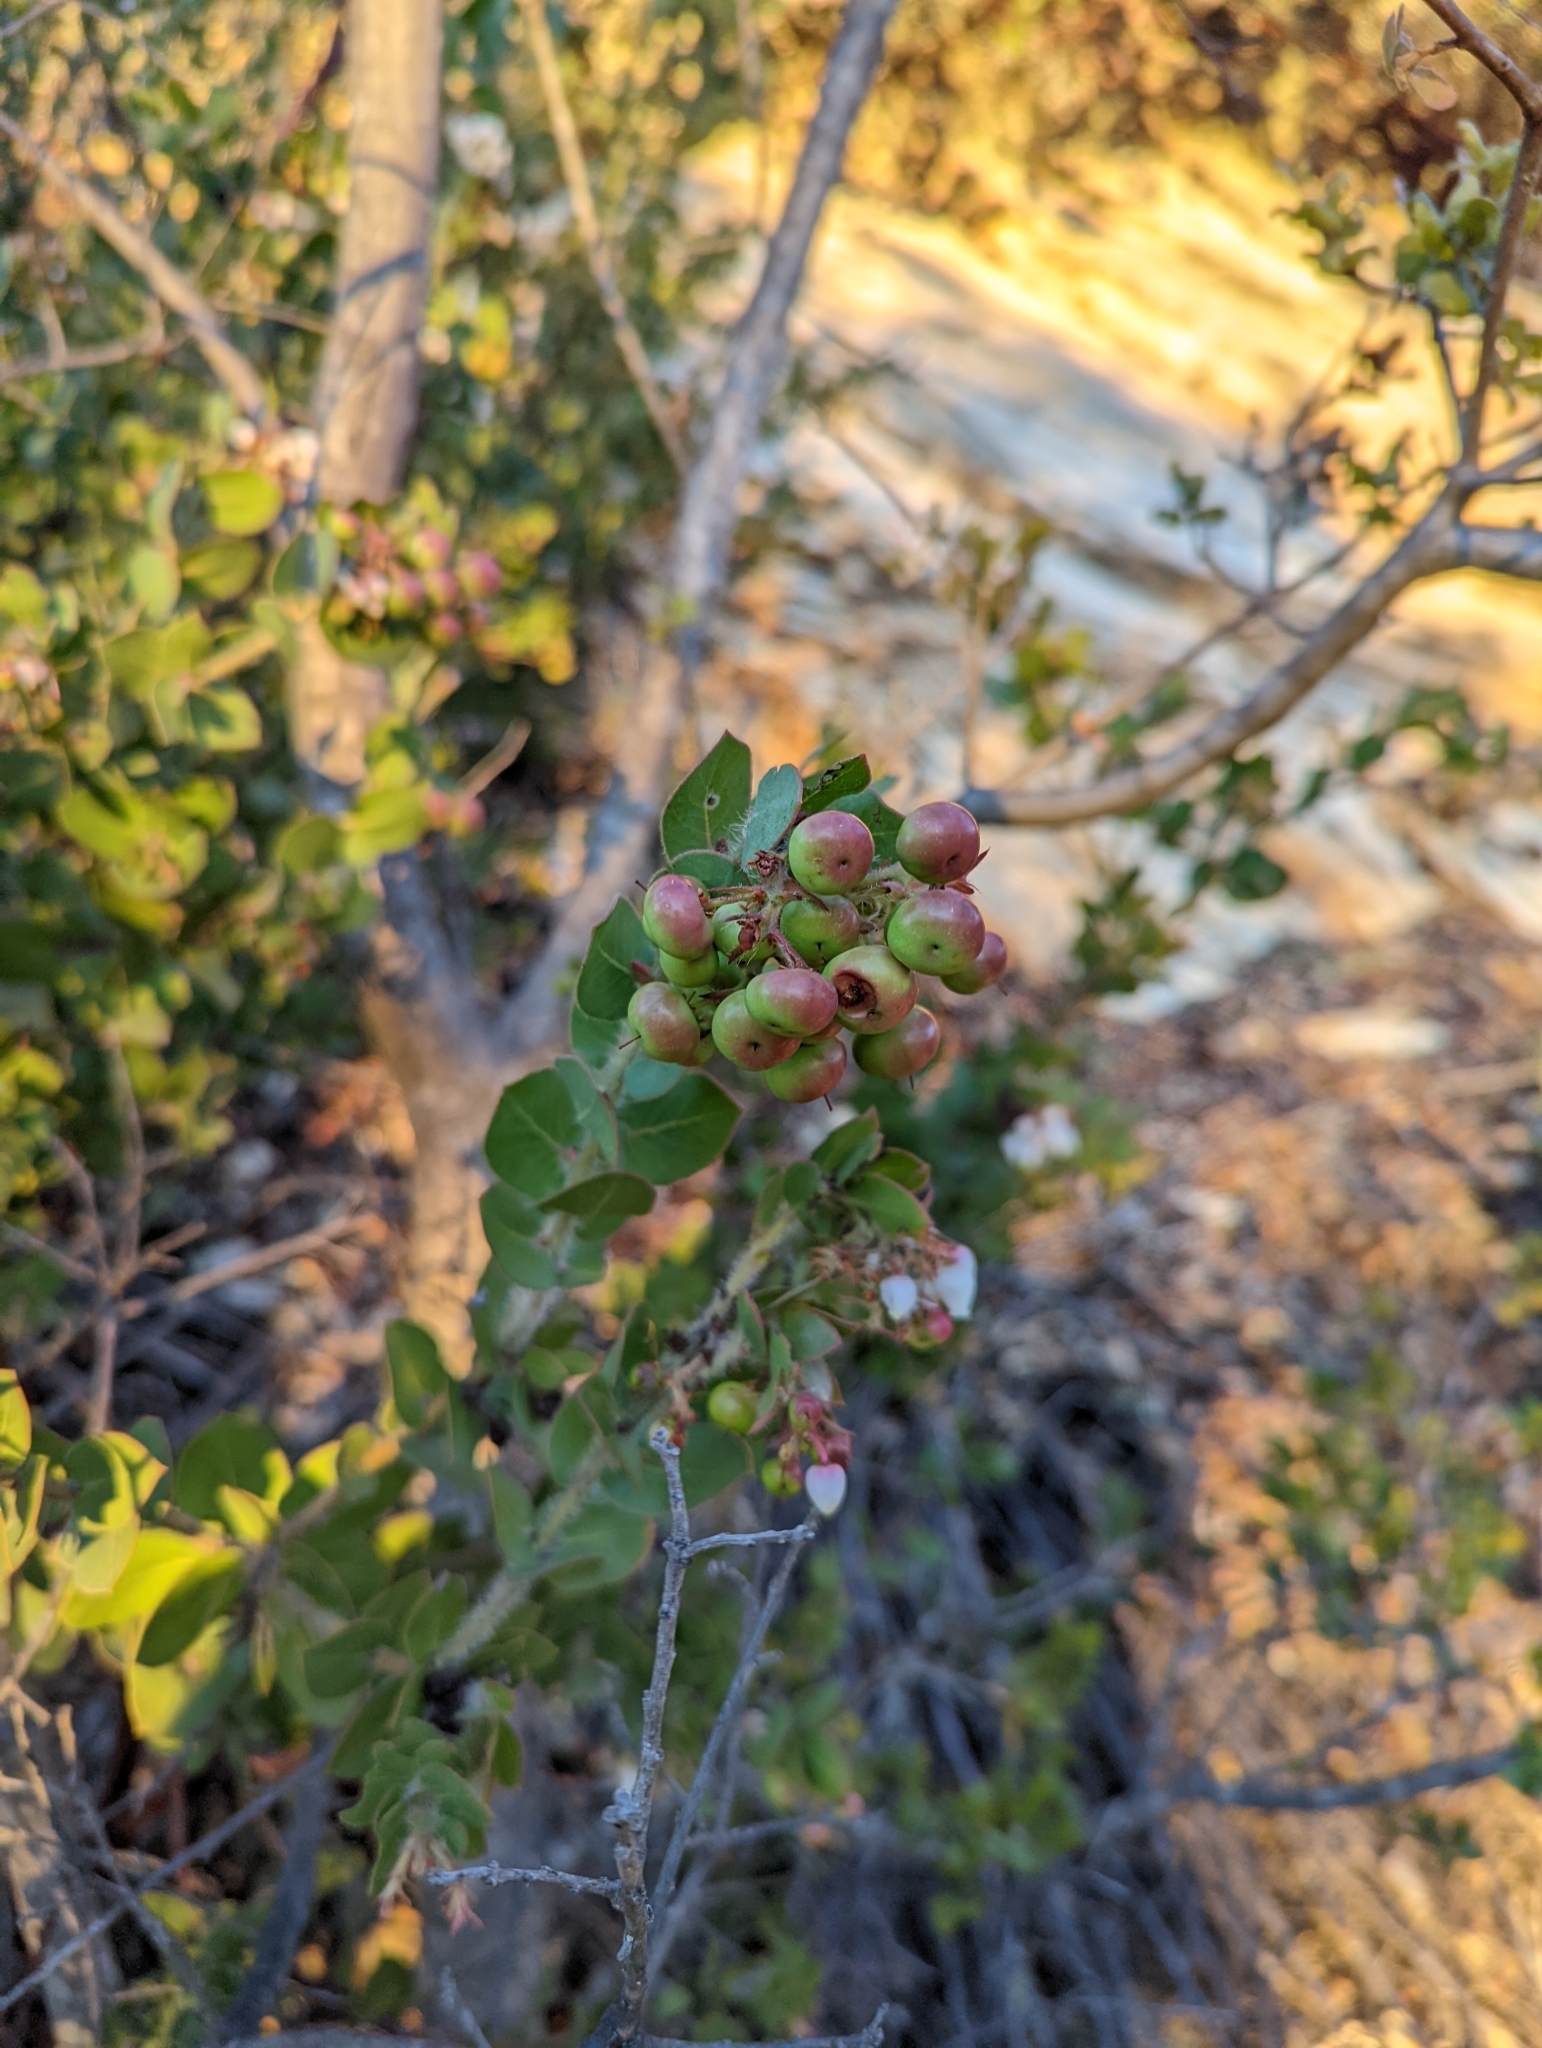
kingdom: Plantae
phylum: Tracheophyta
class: Magnoliopsida
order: Ericales
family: Ericaceae
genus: Arctostaphylos
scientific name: Arctostaphylos pechoensis
